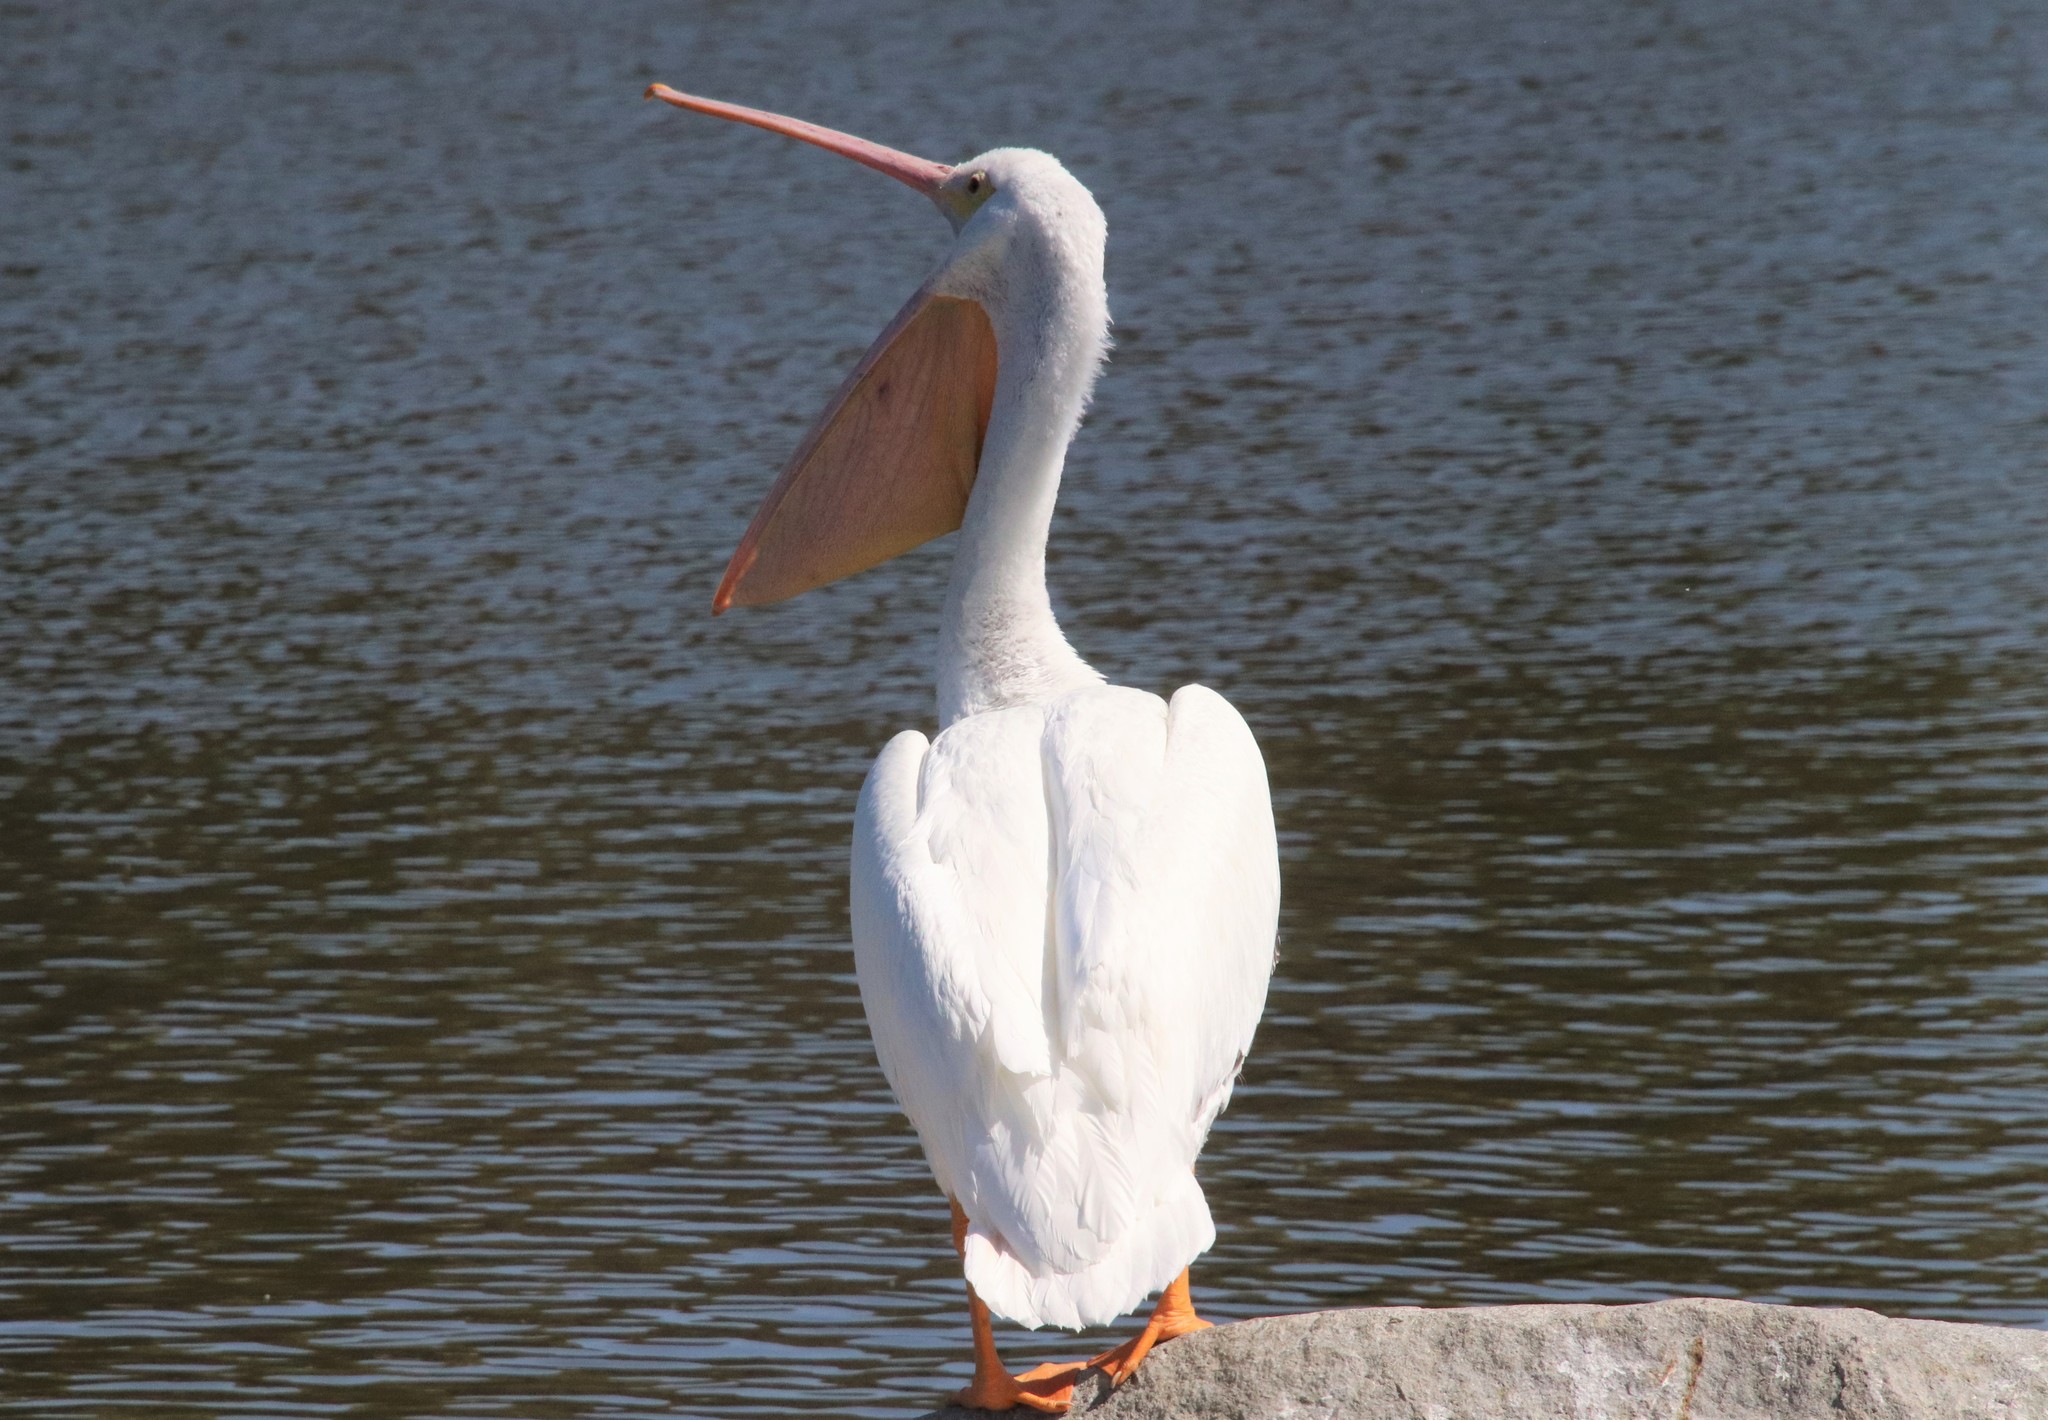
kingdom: Animalia
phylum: Chordata
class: Aves
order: Pelecaniformes
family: Pelecanidae
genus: Pelecanus
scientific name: Pelecanus erythrorhynchos
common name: American white pelican
